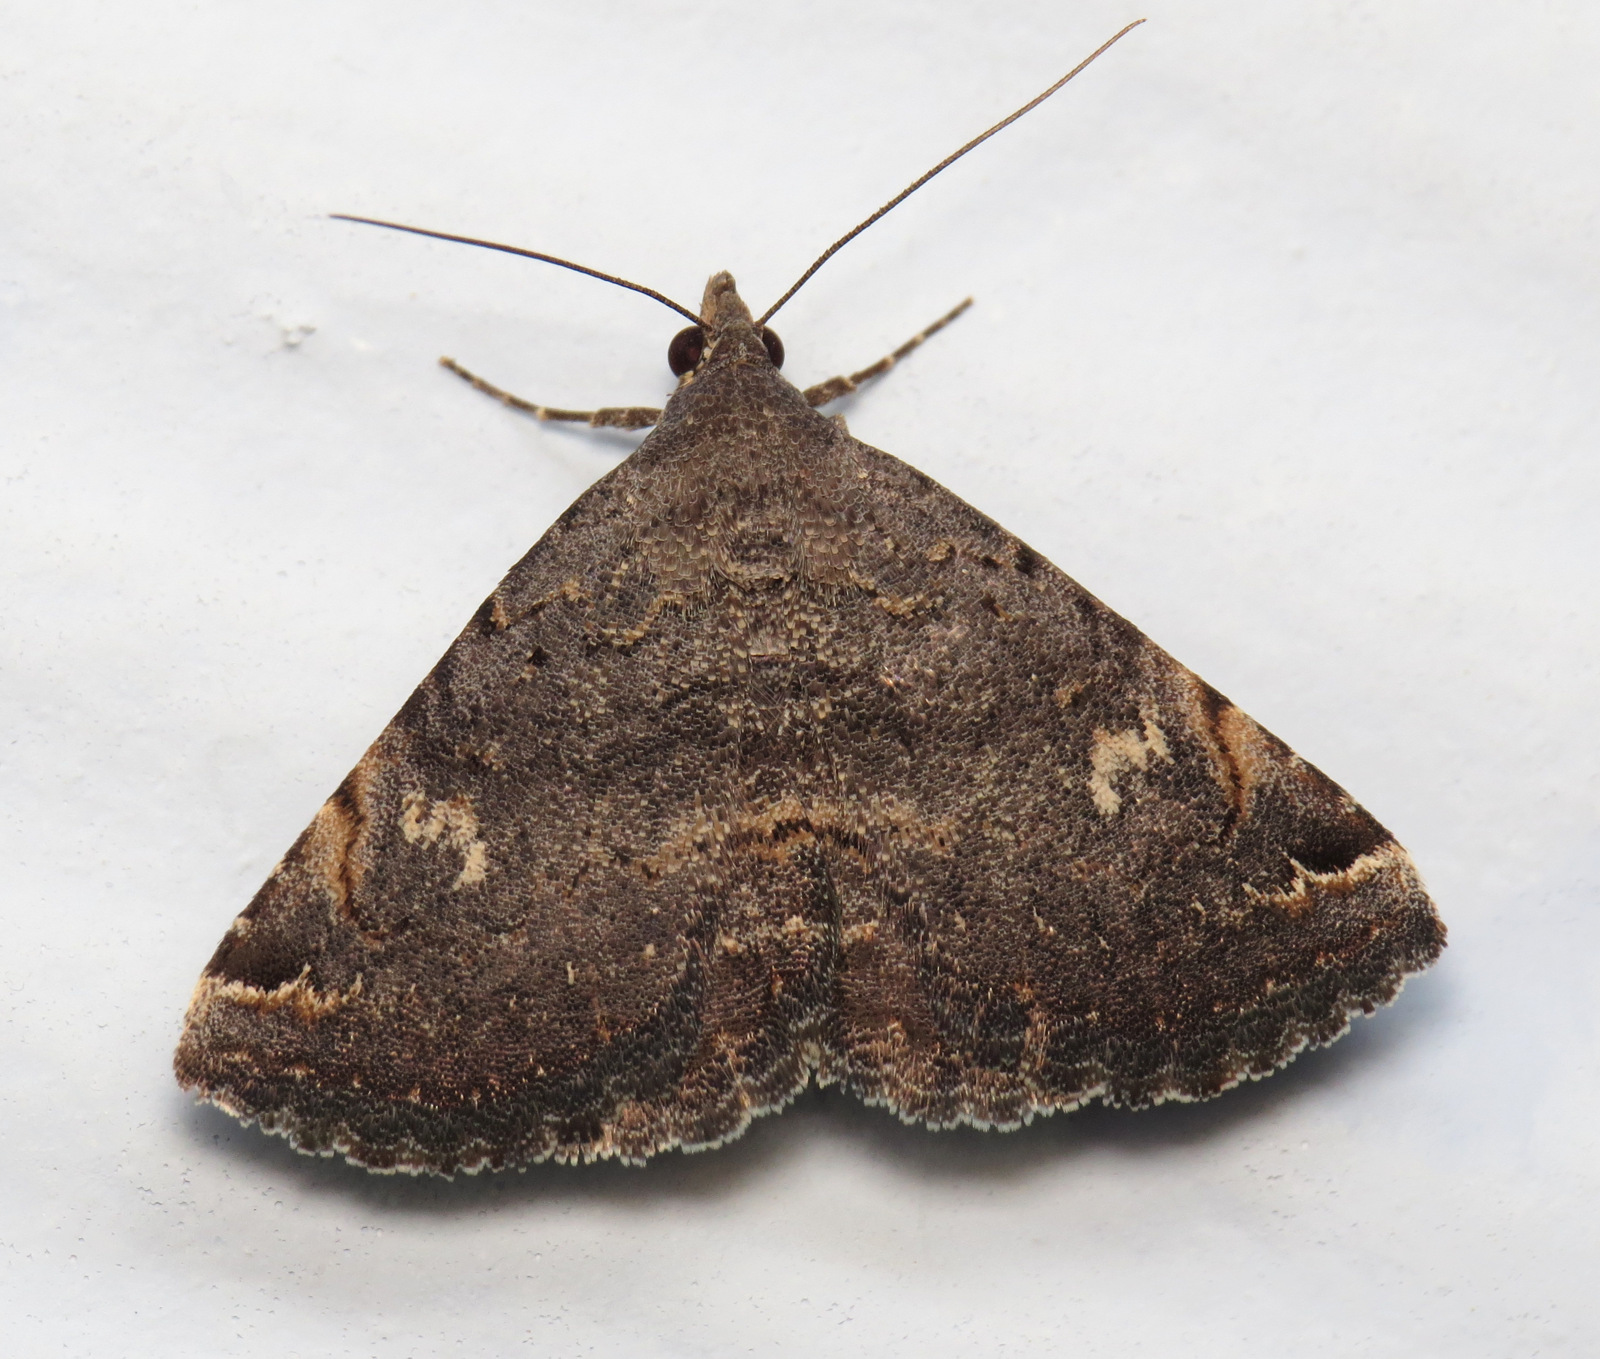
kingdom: Animalia
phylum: Arthropoda
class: Insecta
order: Lepidoptera
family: Erebidae
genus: Toxonprucha
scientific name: Toxonprucha crudelis
